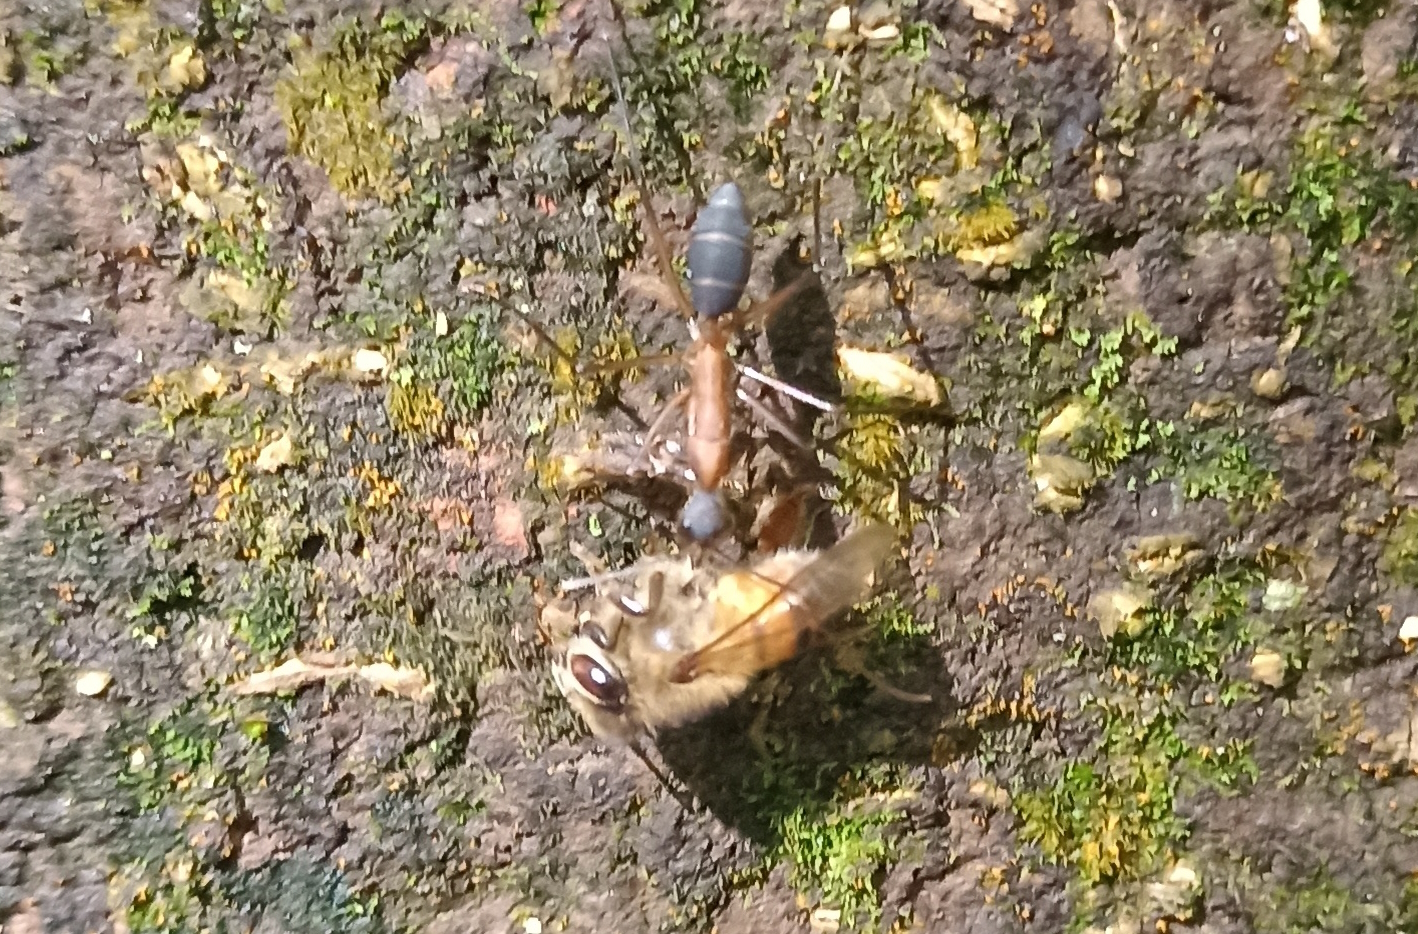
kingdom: Animalia
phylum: Arthropoda
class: Insecta
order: Hymenoptera
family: Apidae
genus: Apis
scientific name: Apis mellifera
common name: Honey bee
